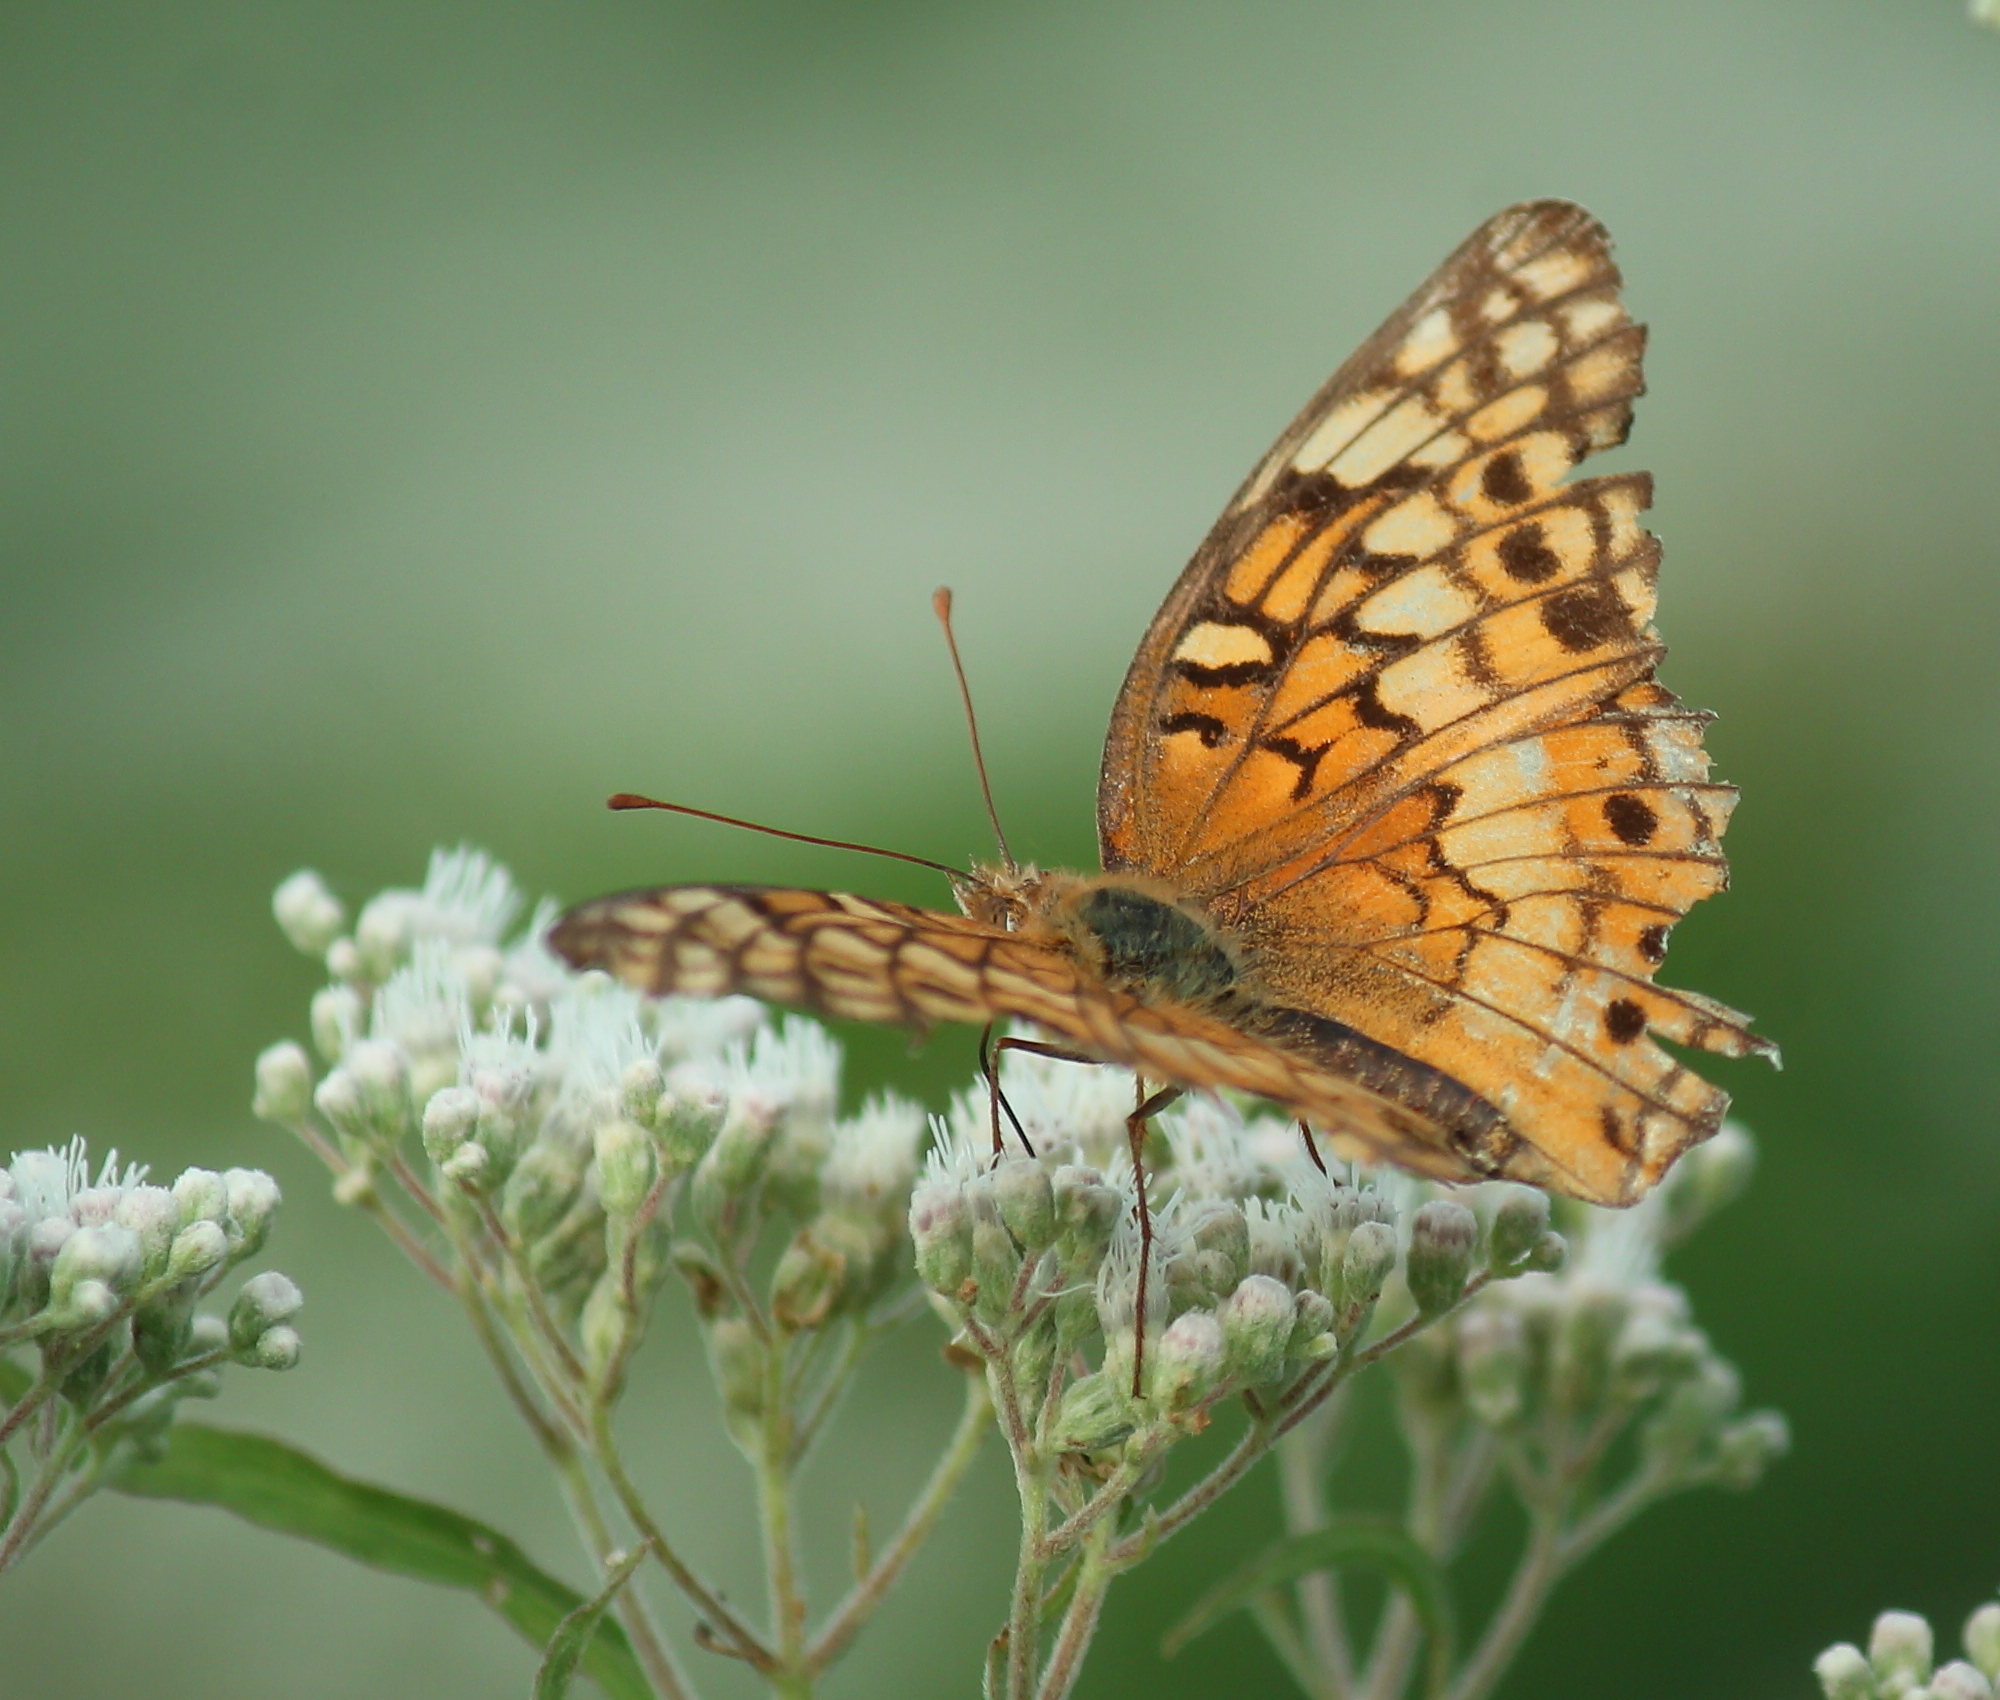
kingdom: Animalia
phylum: Arthropoda
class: Insecta
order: Lepidoptera
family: Nymphalidae
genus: Euptoieta
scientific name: Euptoieta claudia
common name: Variegated fritillary
